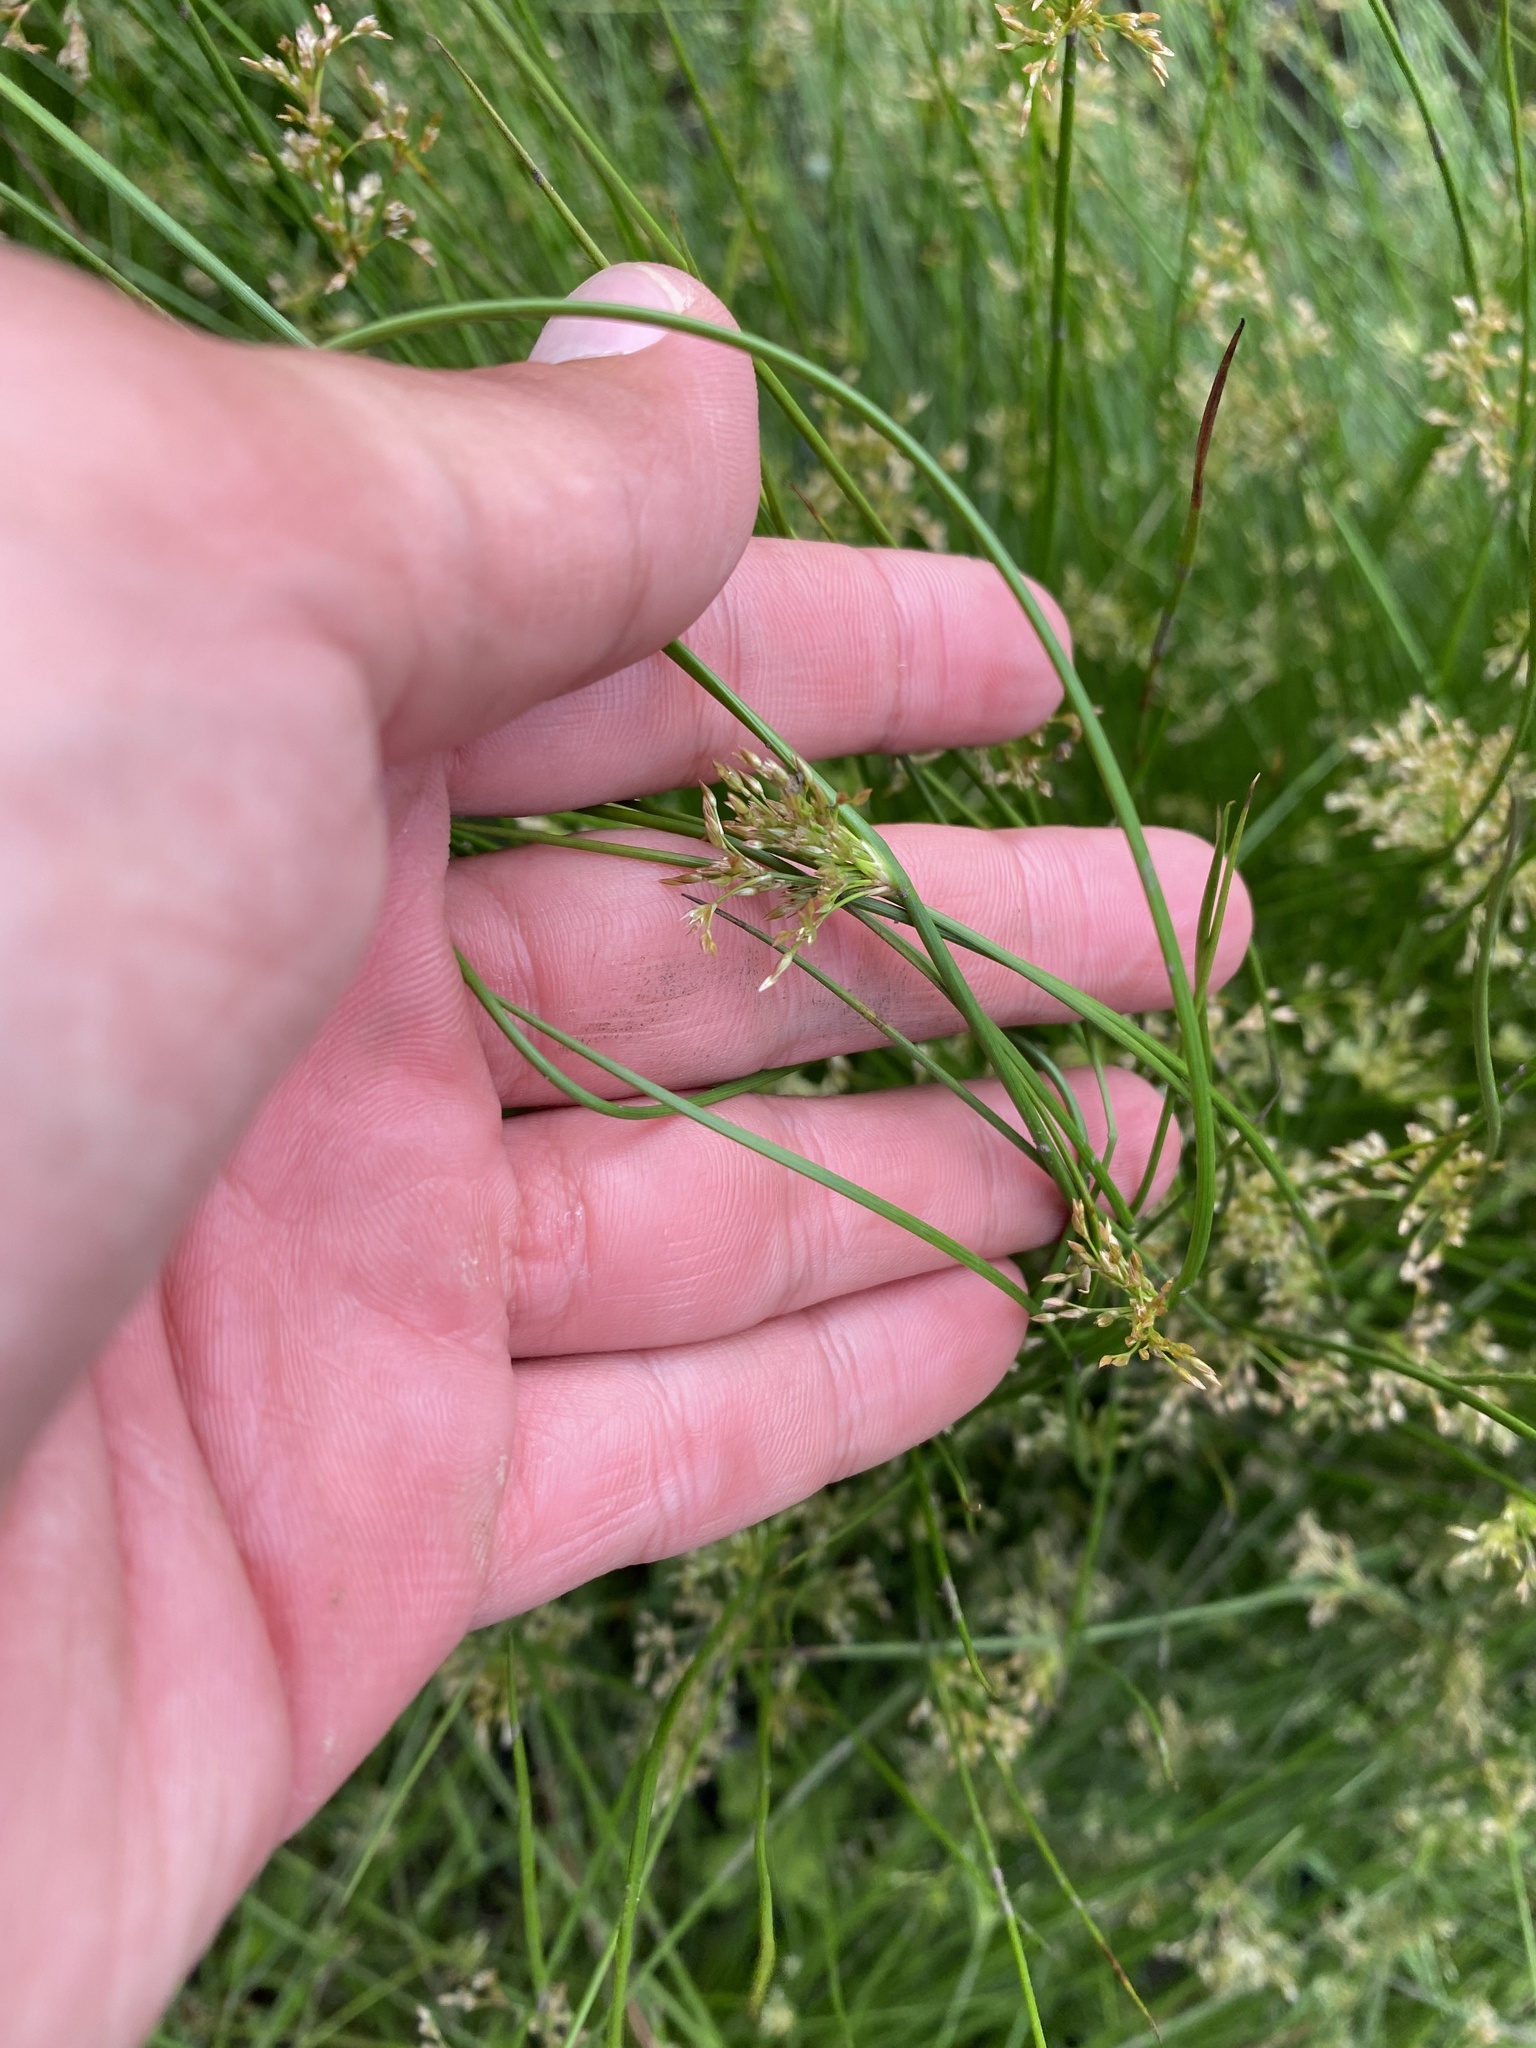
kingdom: Plantae
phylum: Tracheophyta
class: Liliopsida
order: Poales
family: Juncaceae
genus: Juncus
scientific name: Juncus decipiens
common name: Lamp rush
